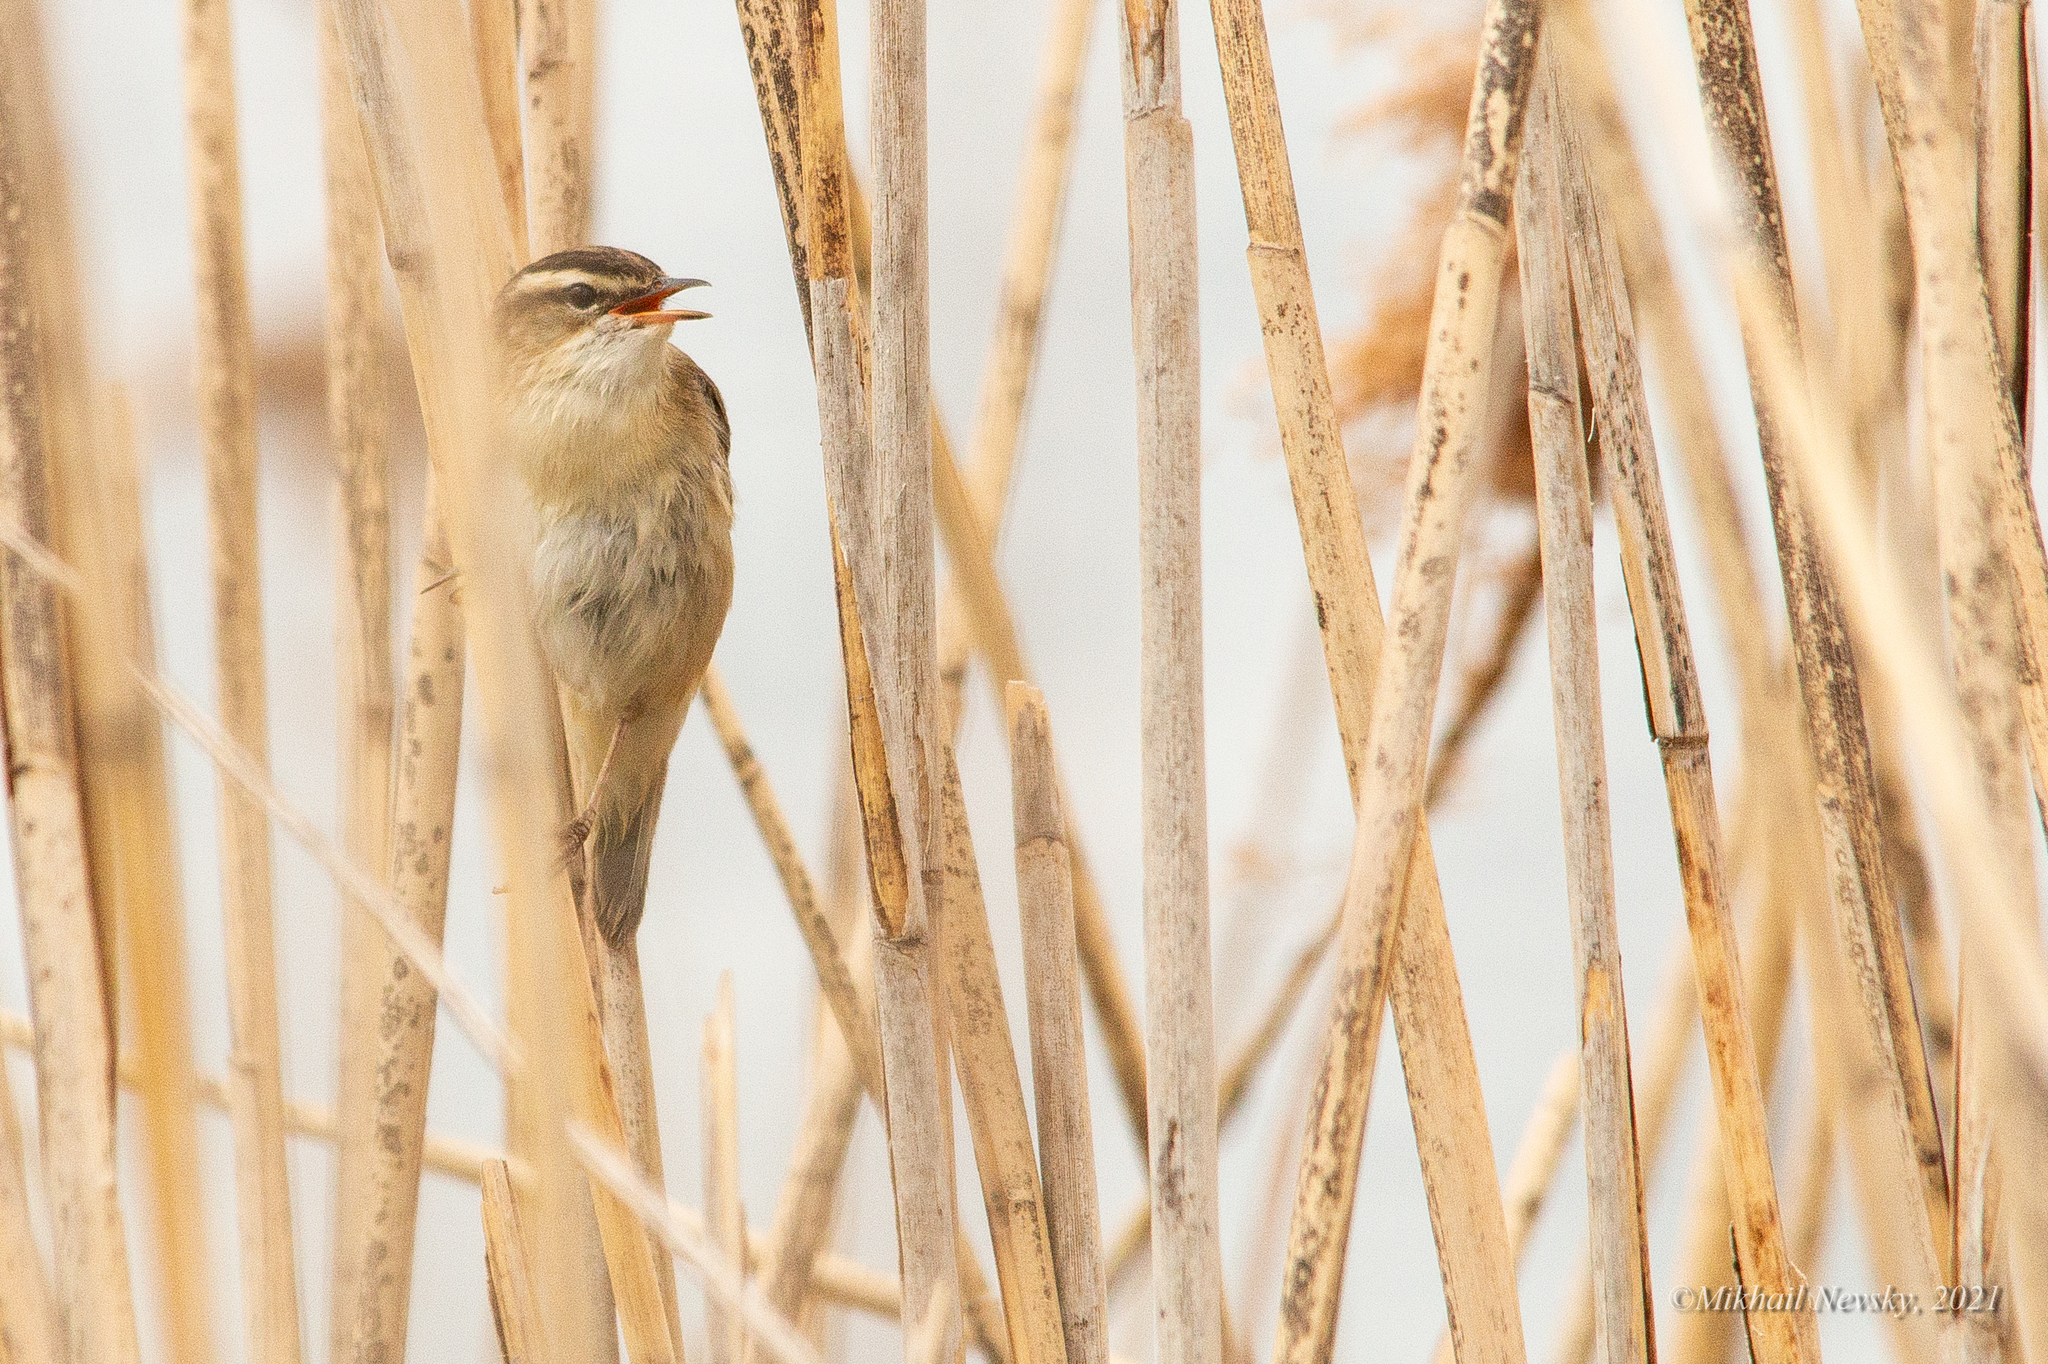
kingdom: Animalia
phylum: Chordata
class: Aves
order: Passeriformes
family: Acrocephalidae
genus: Acrocephalus
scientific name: Acrocephalus schoenobaenus
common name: Sedge warbler
